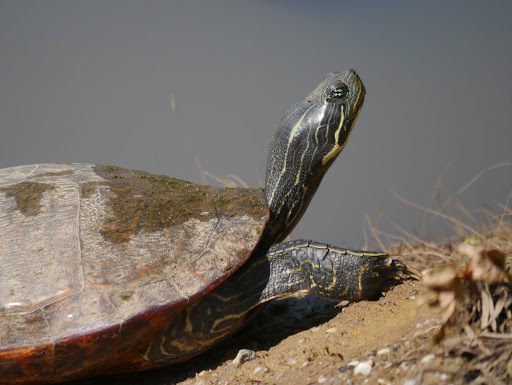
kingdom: Animalia
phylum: Chordata
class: Testudines
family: Emydidae
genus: Pseudemys
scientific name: Pseudemys rubriventris
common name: American red-bellied turtle
